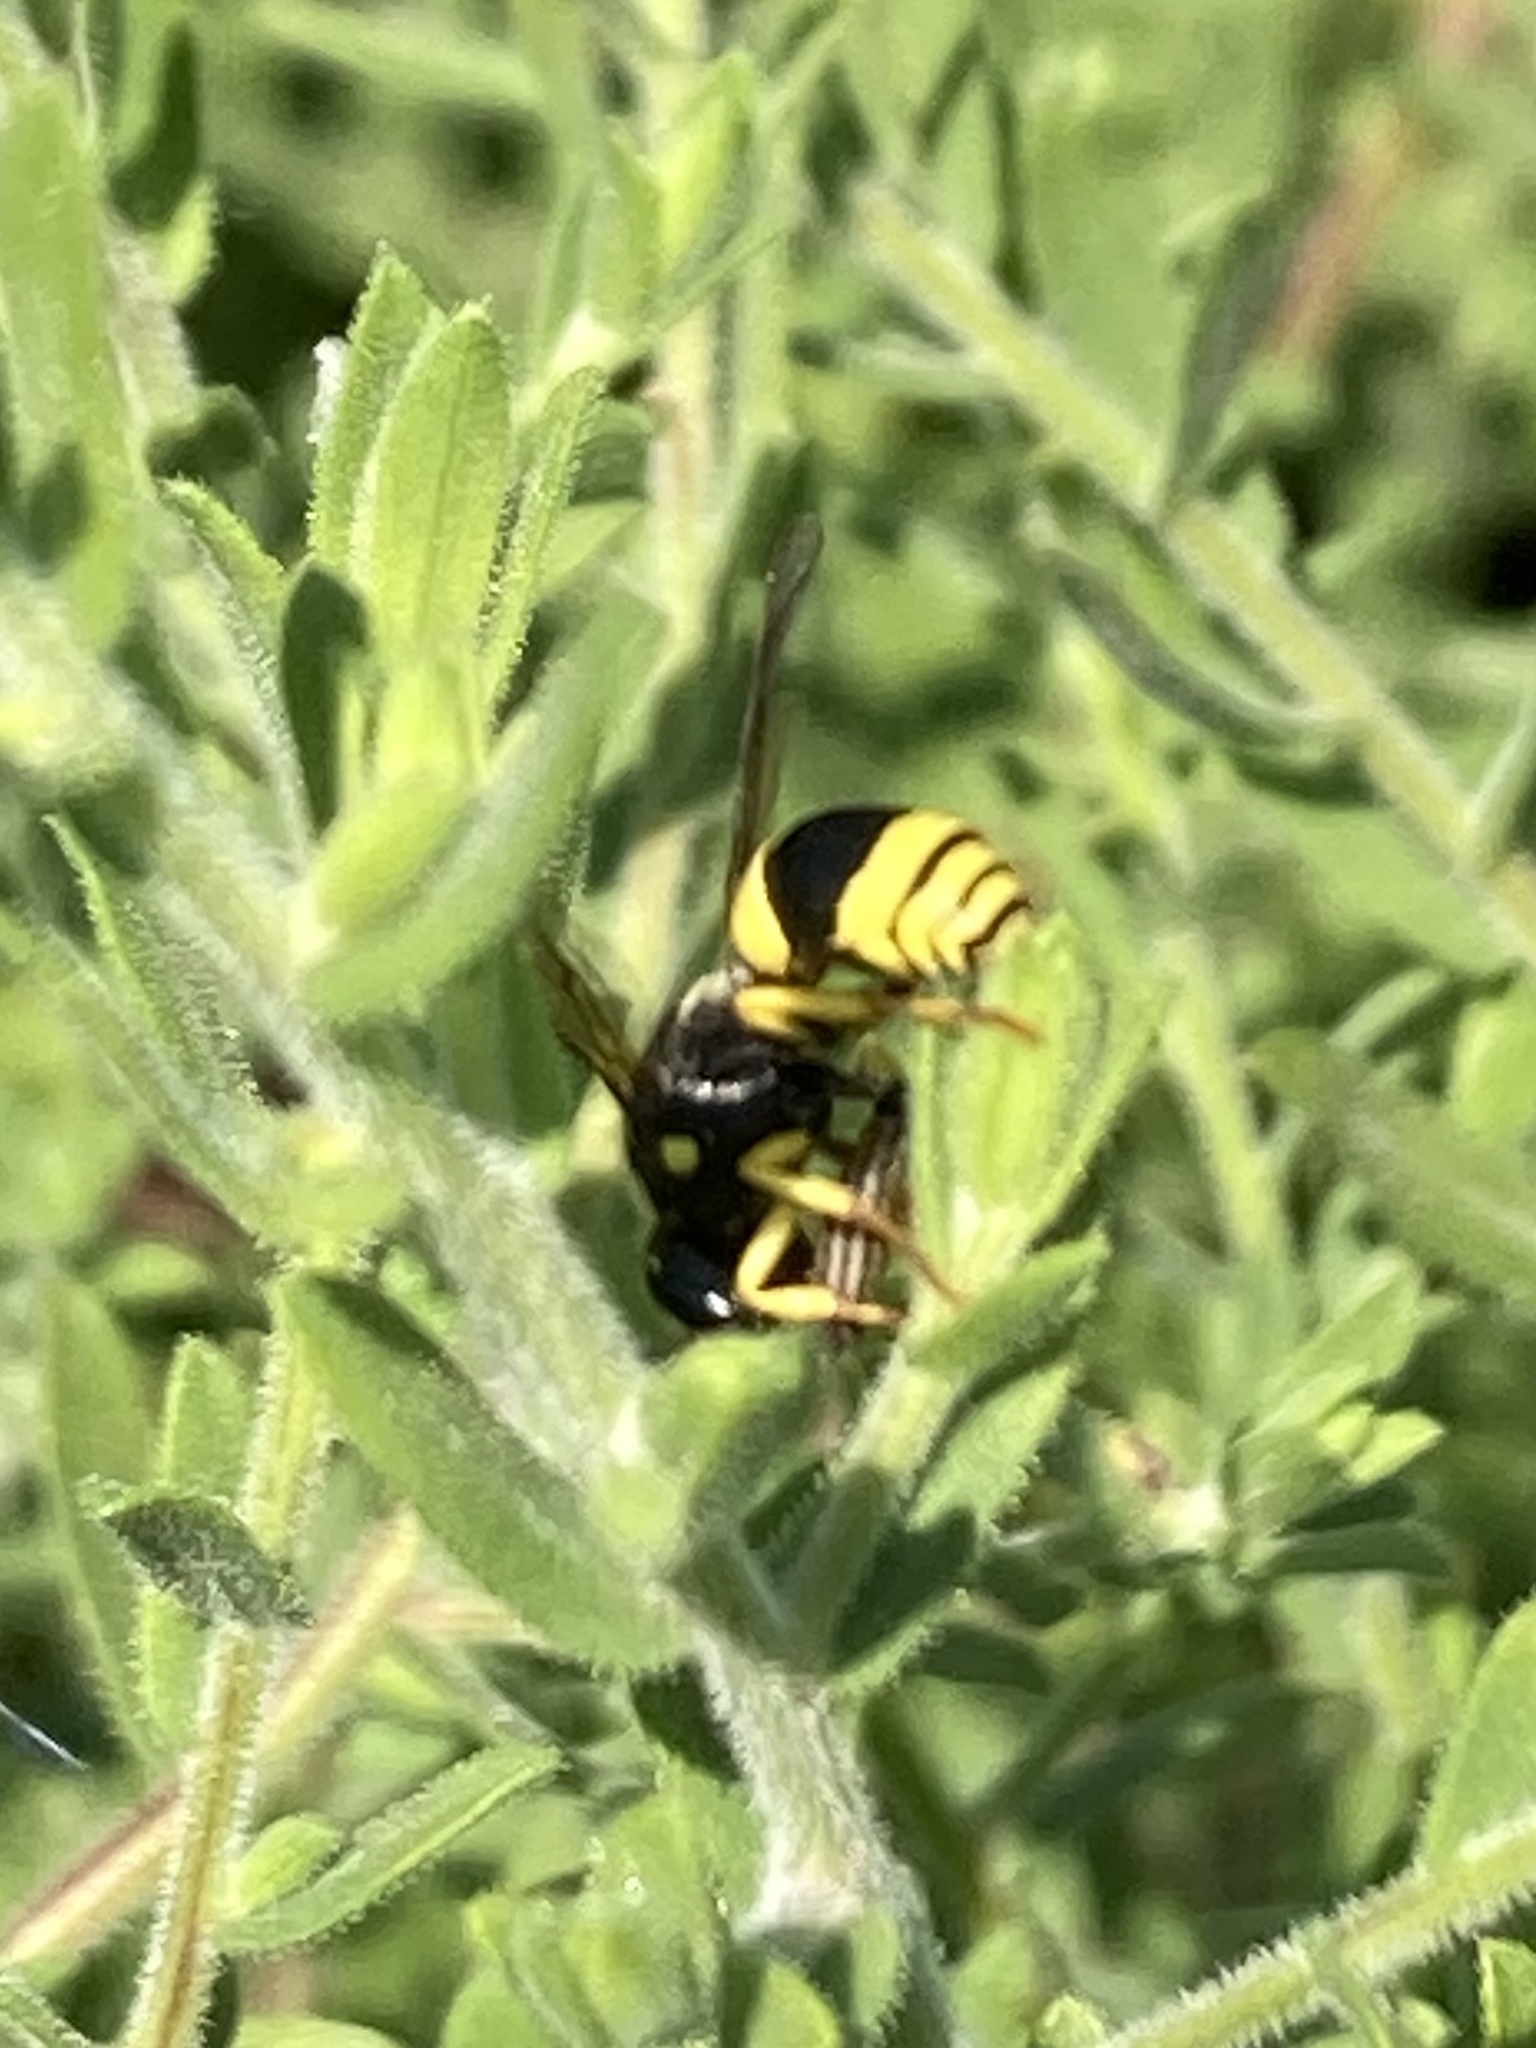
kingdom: Animalia
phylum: Arthropoda
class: Insecta
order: Hymenoptera
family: Vespidae
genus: Ancistrocerus
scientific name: Ancistrocerus gazella
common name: European tube wasp
